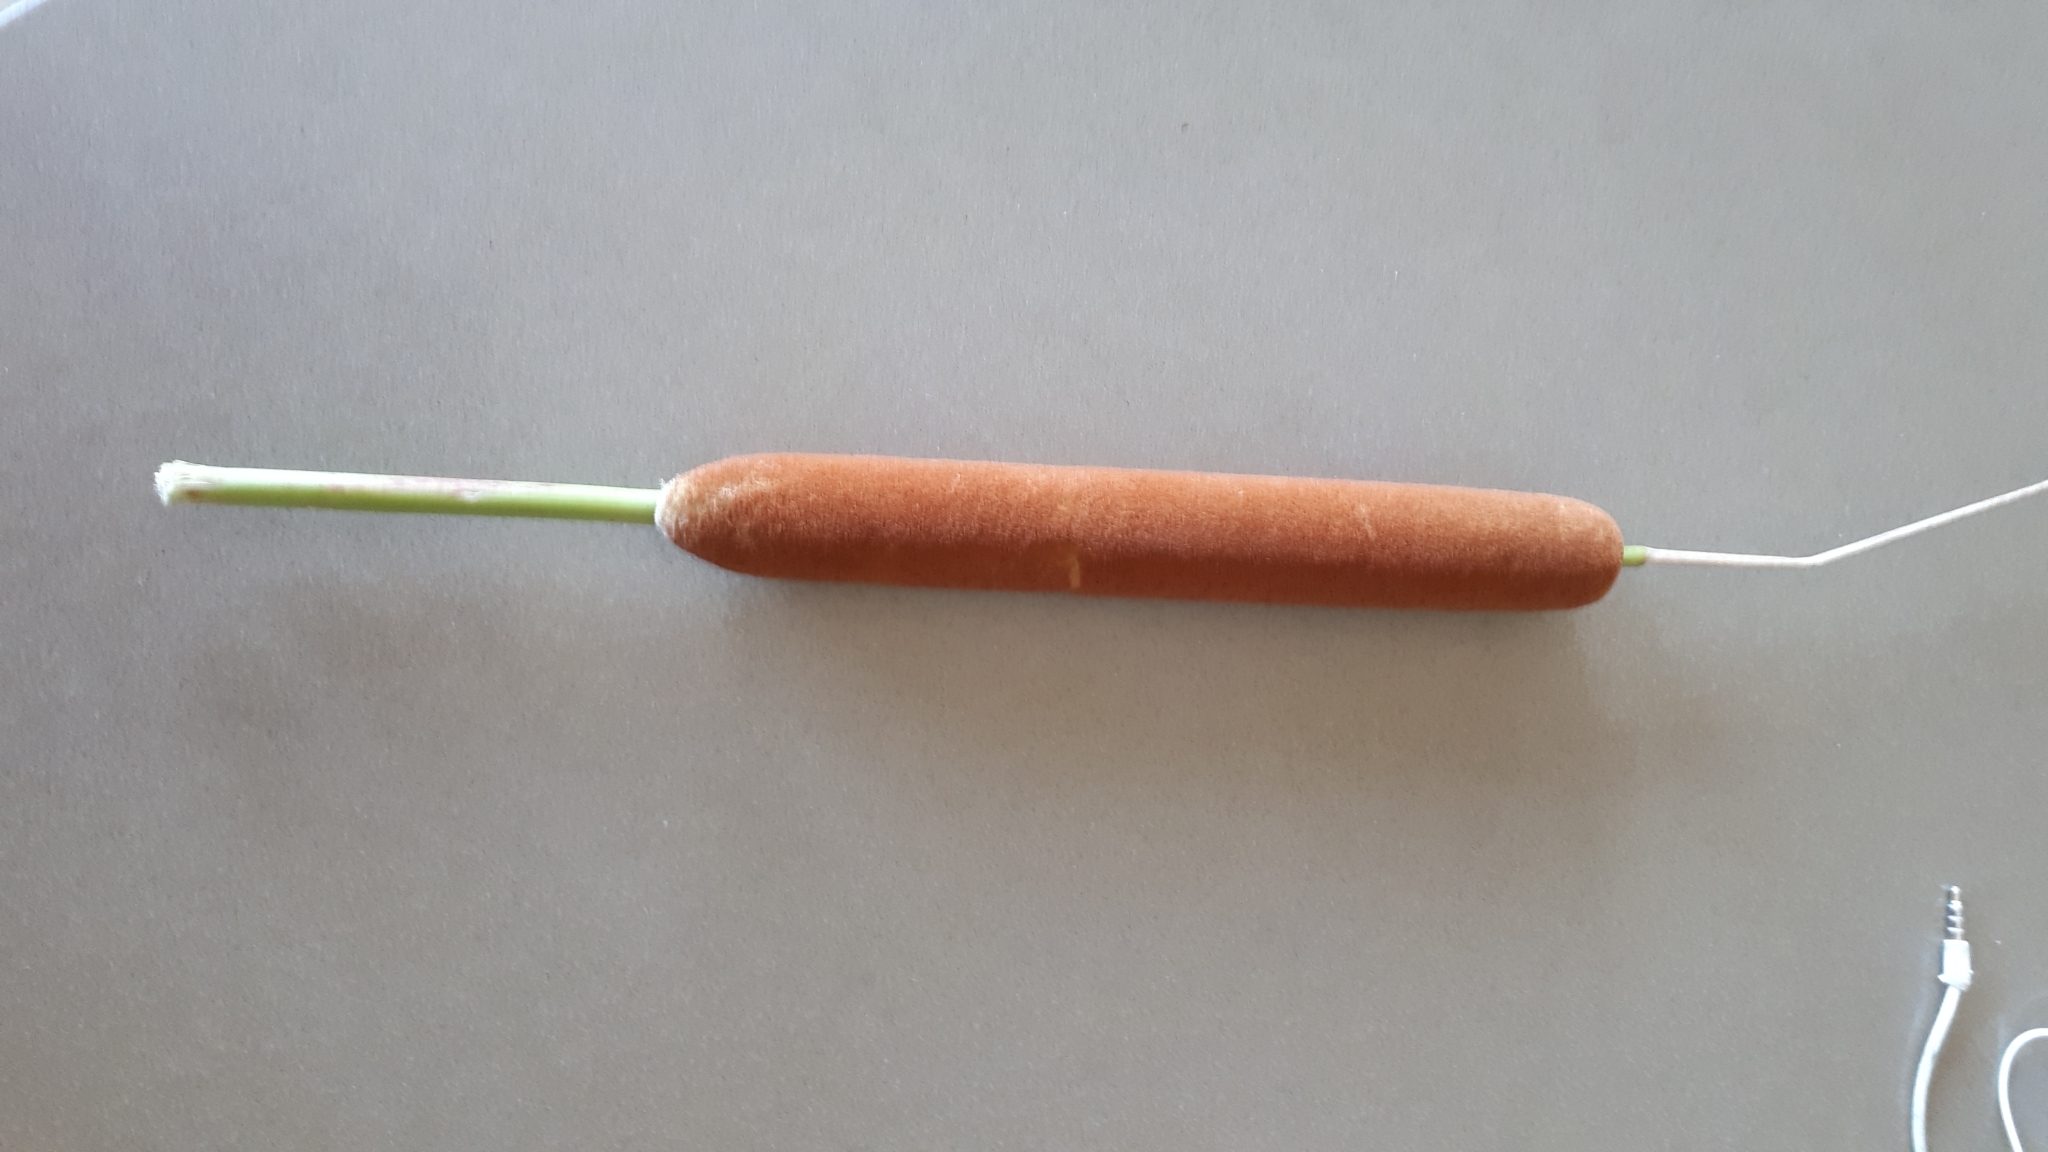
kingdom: Plantae
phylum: Tracheophyta
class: Liliopsida
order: Poales
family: Typhaceae
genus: Typha
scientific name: Typha domingensis
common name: Southern cattail
